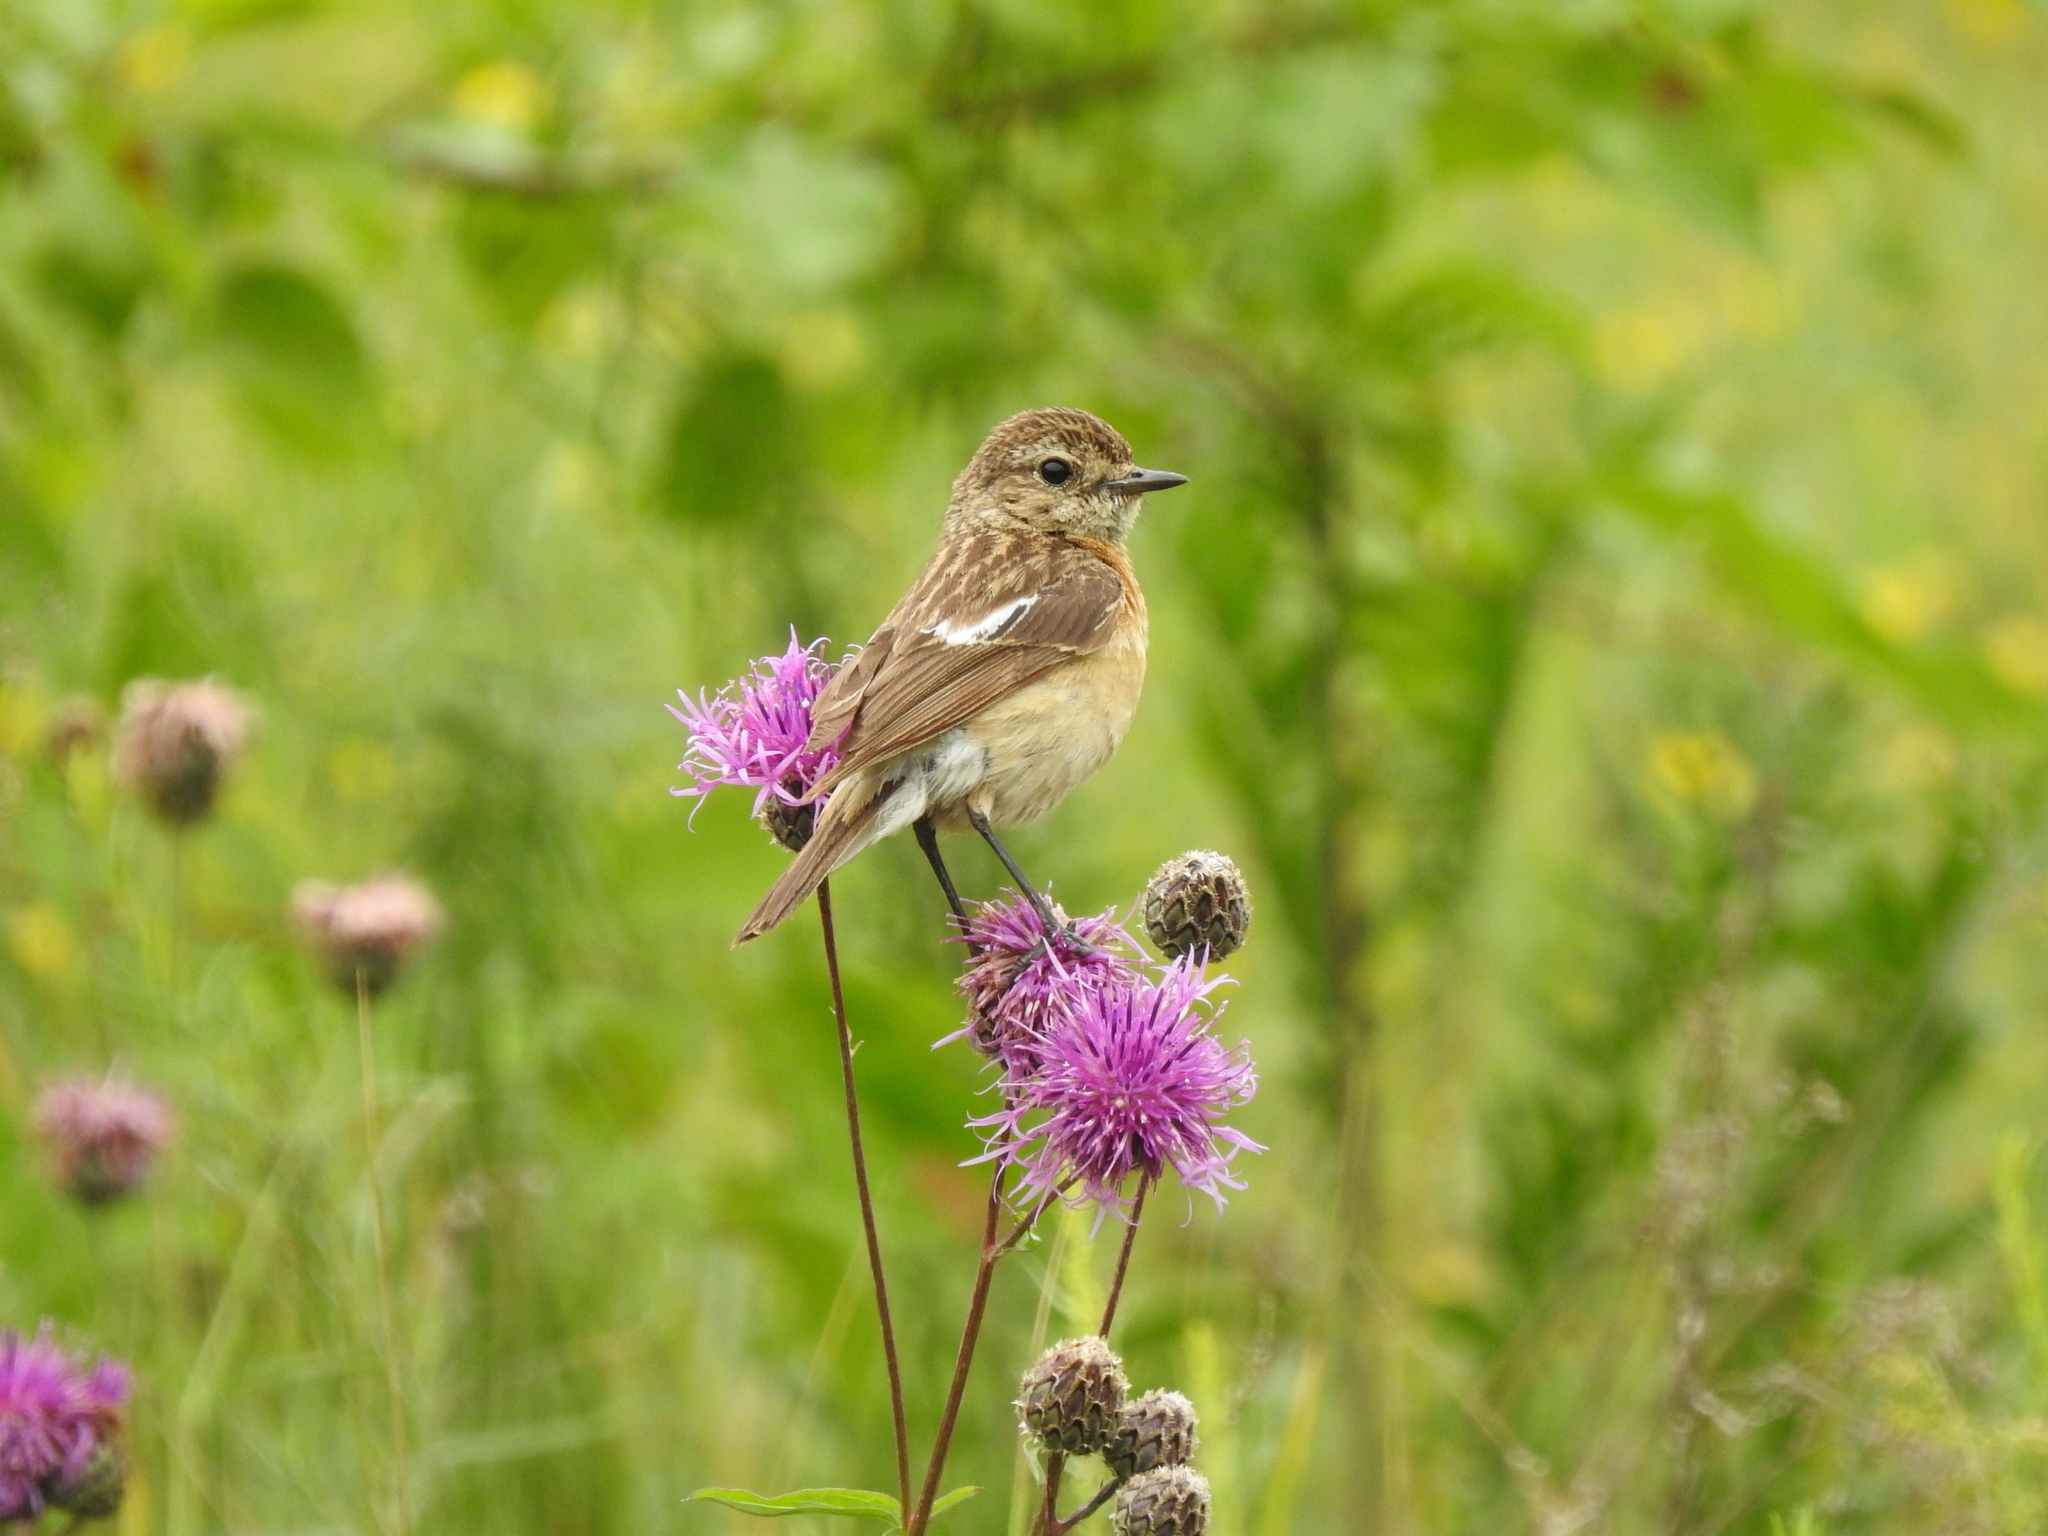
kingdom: Animalia
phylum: Chordata
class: Aves
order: Passeriformes
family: Muscicapidae
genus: Saxicola
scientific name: Saxicola maurus
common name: Siberian stonechat
